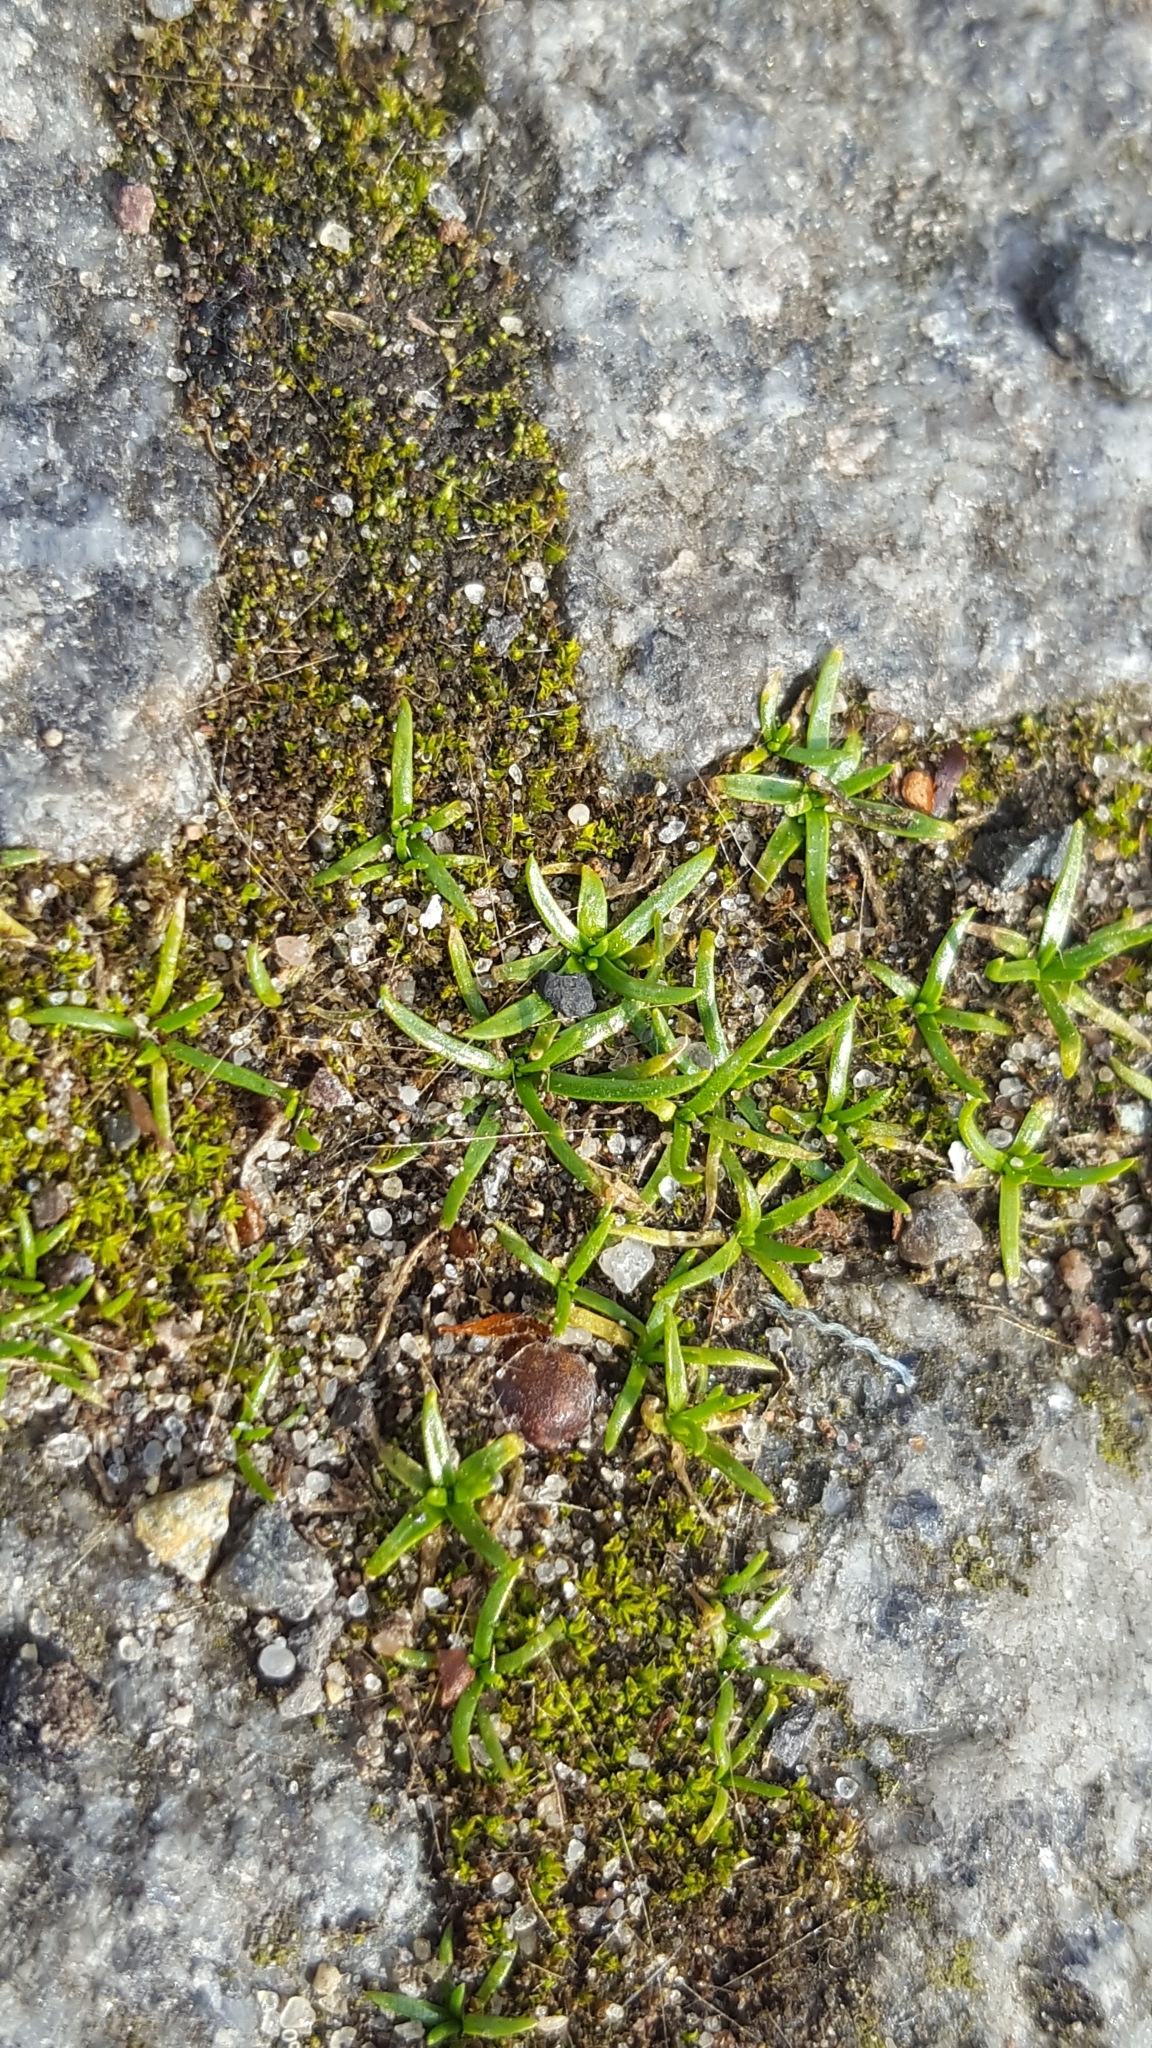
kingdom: Plantae
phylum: Tracheophyta
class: Magnoliopsida
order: Caryophyllales
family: Caryophyllaceae
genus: Sagina
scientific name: Sagina procumbens
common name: Procumbent pearlwort
